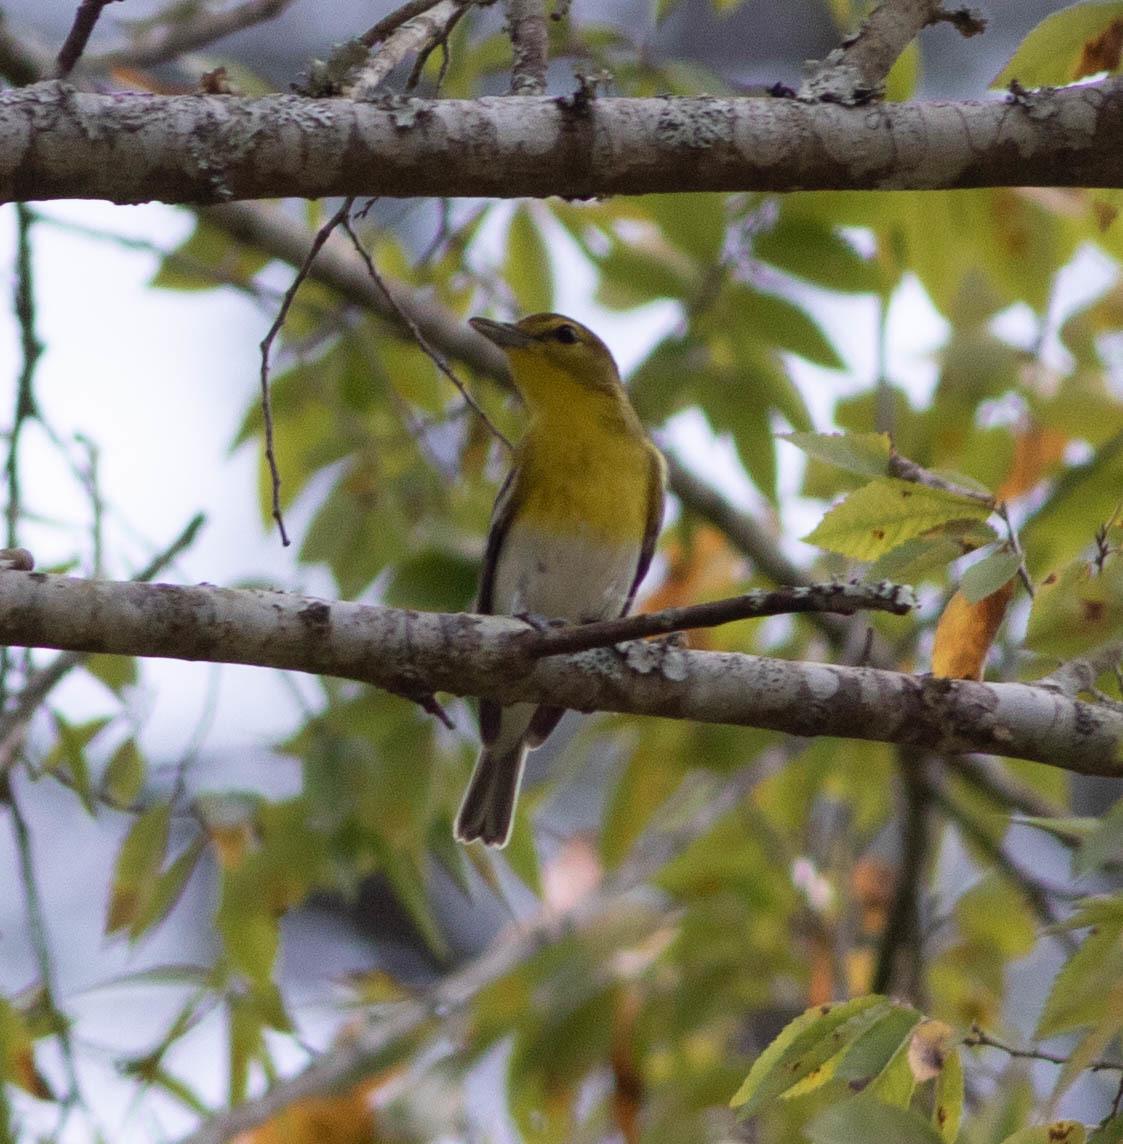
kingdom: Animalia
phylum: Chordata
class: Aves
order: Passeriformes
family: Vireonidae
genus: Vireo
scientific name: Vireo flavifrons
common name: Yellow-throated vireo
